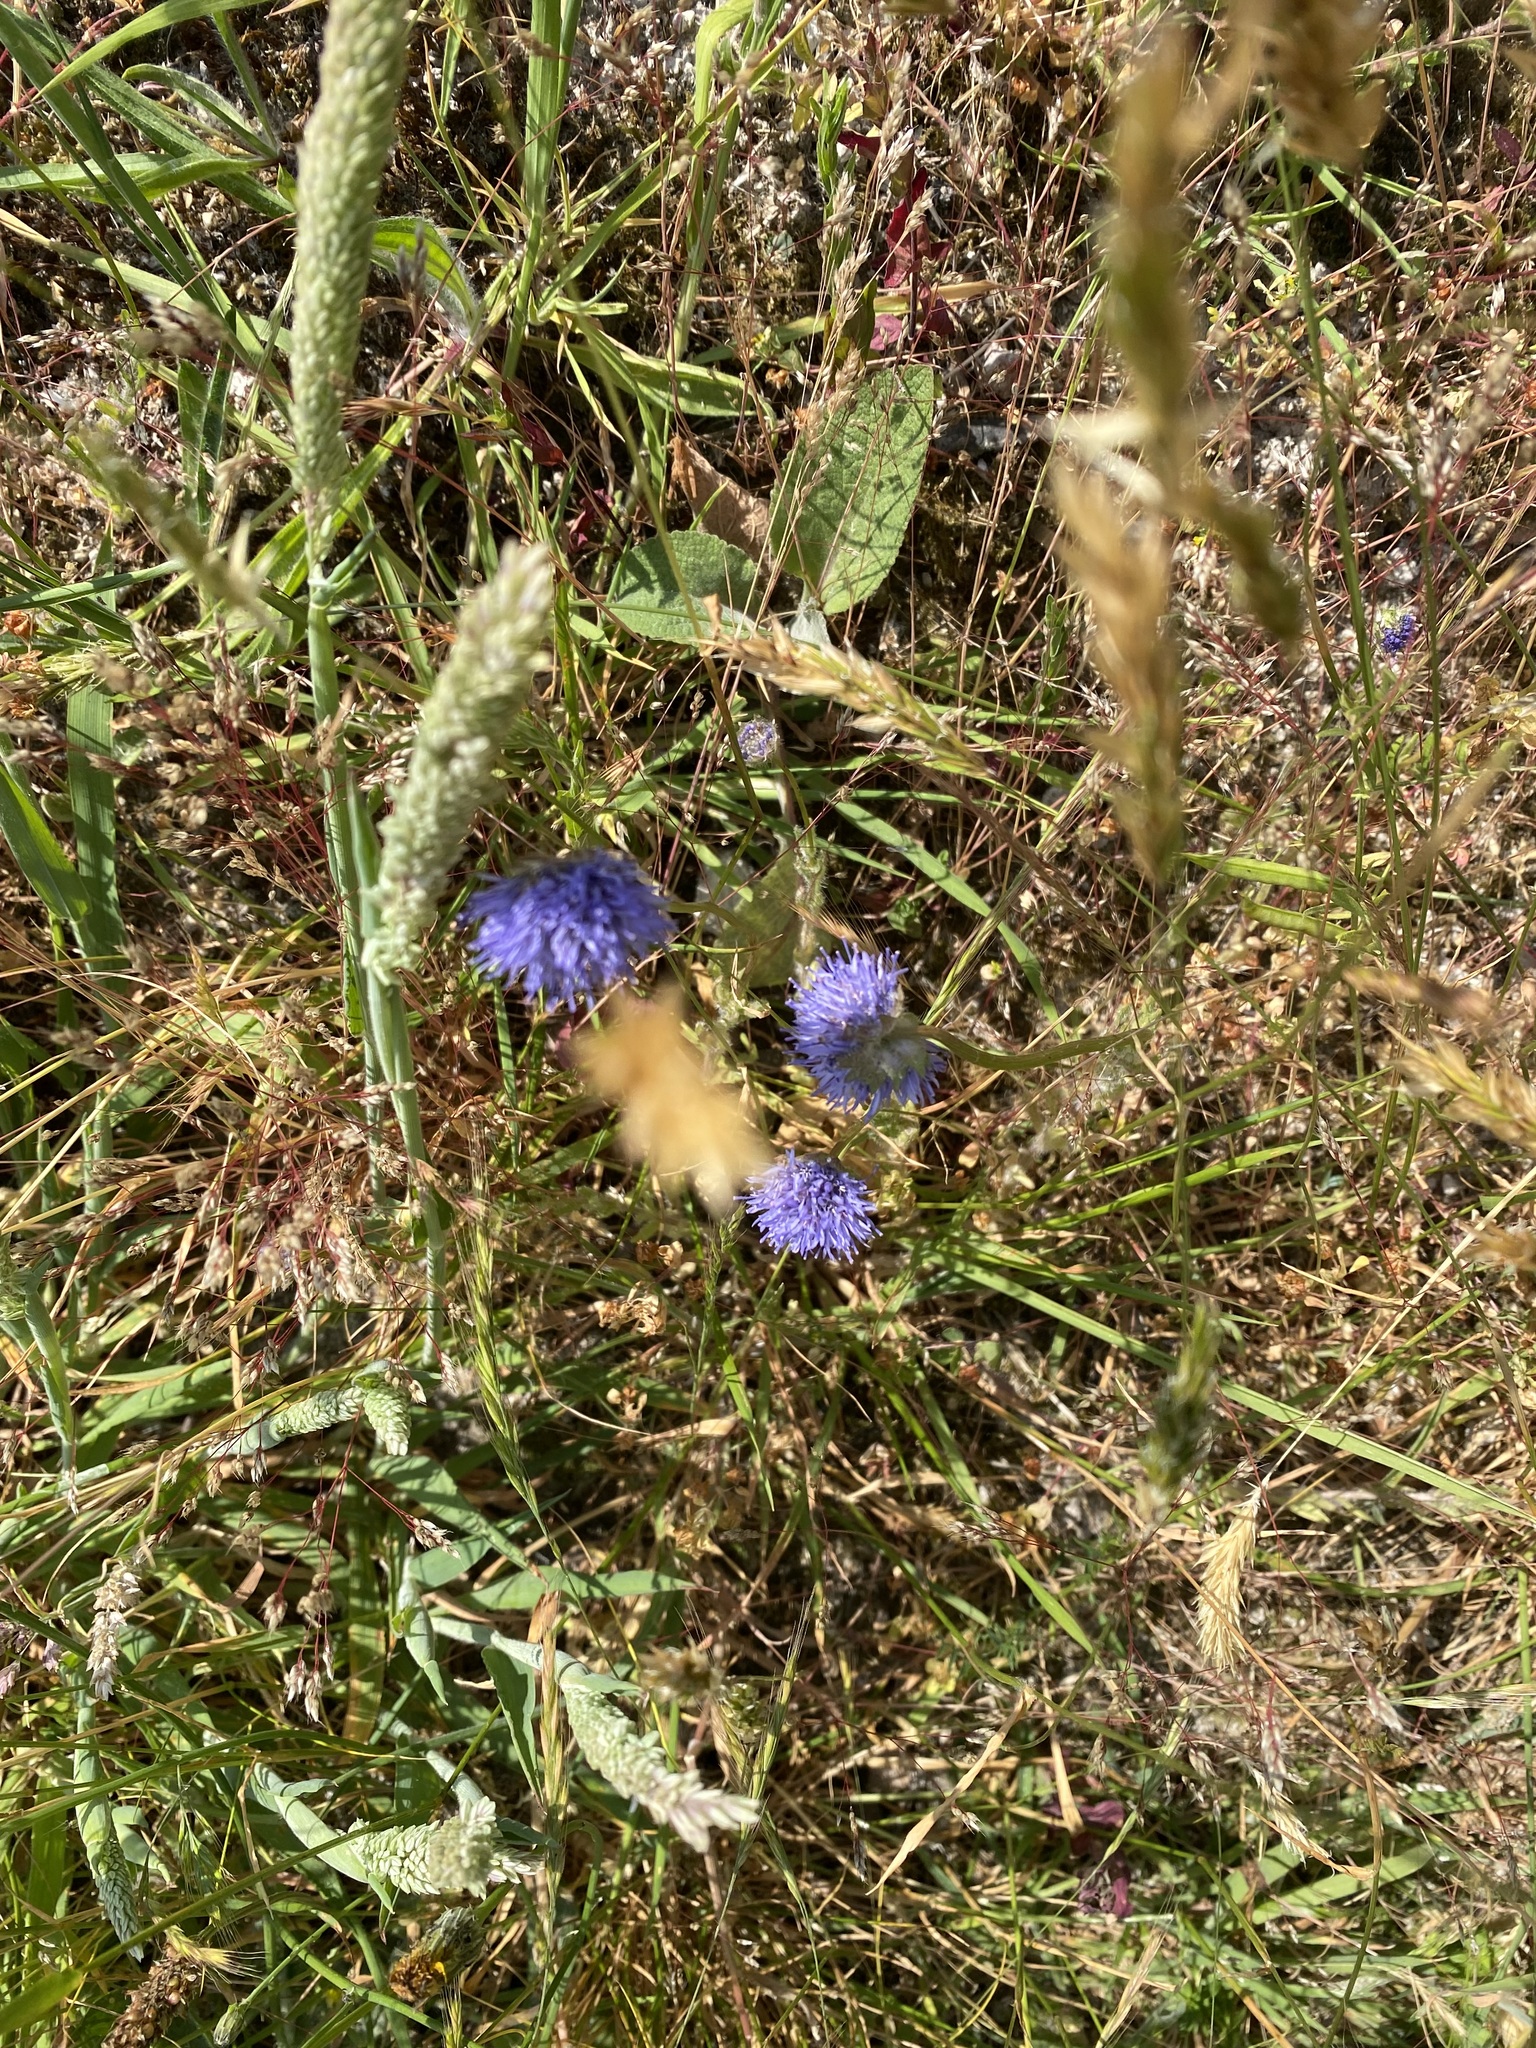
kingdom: Plantae
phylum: Tracheophyta
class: Magnoliopsida
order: Asterales
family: Campanulaceae
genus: Jasione
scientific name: Jasione montana
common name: Sheep's-bit
